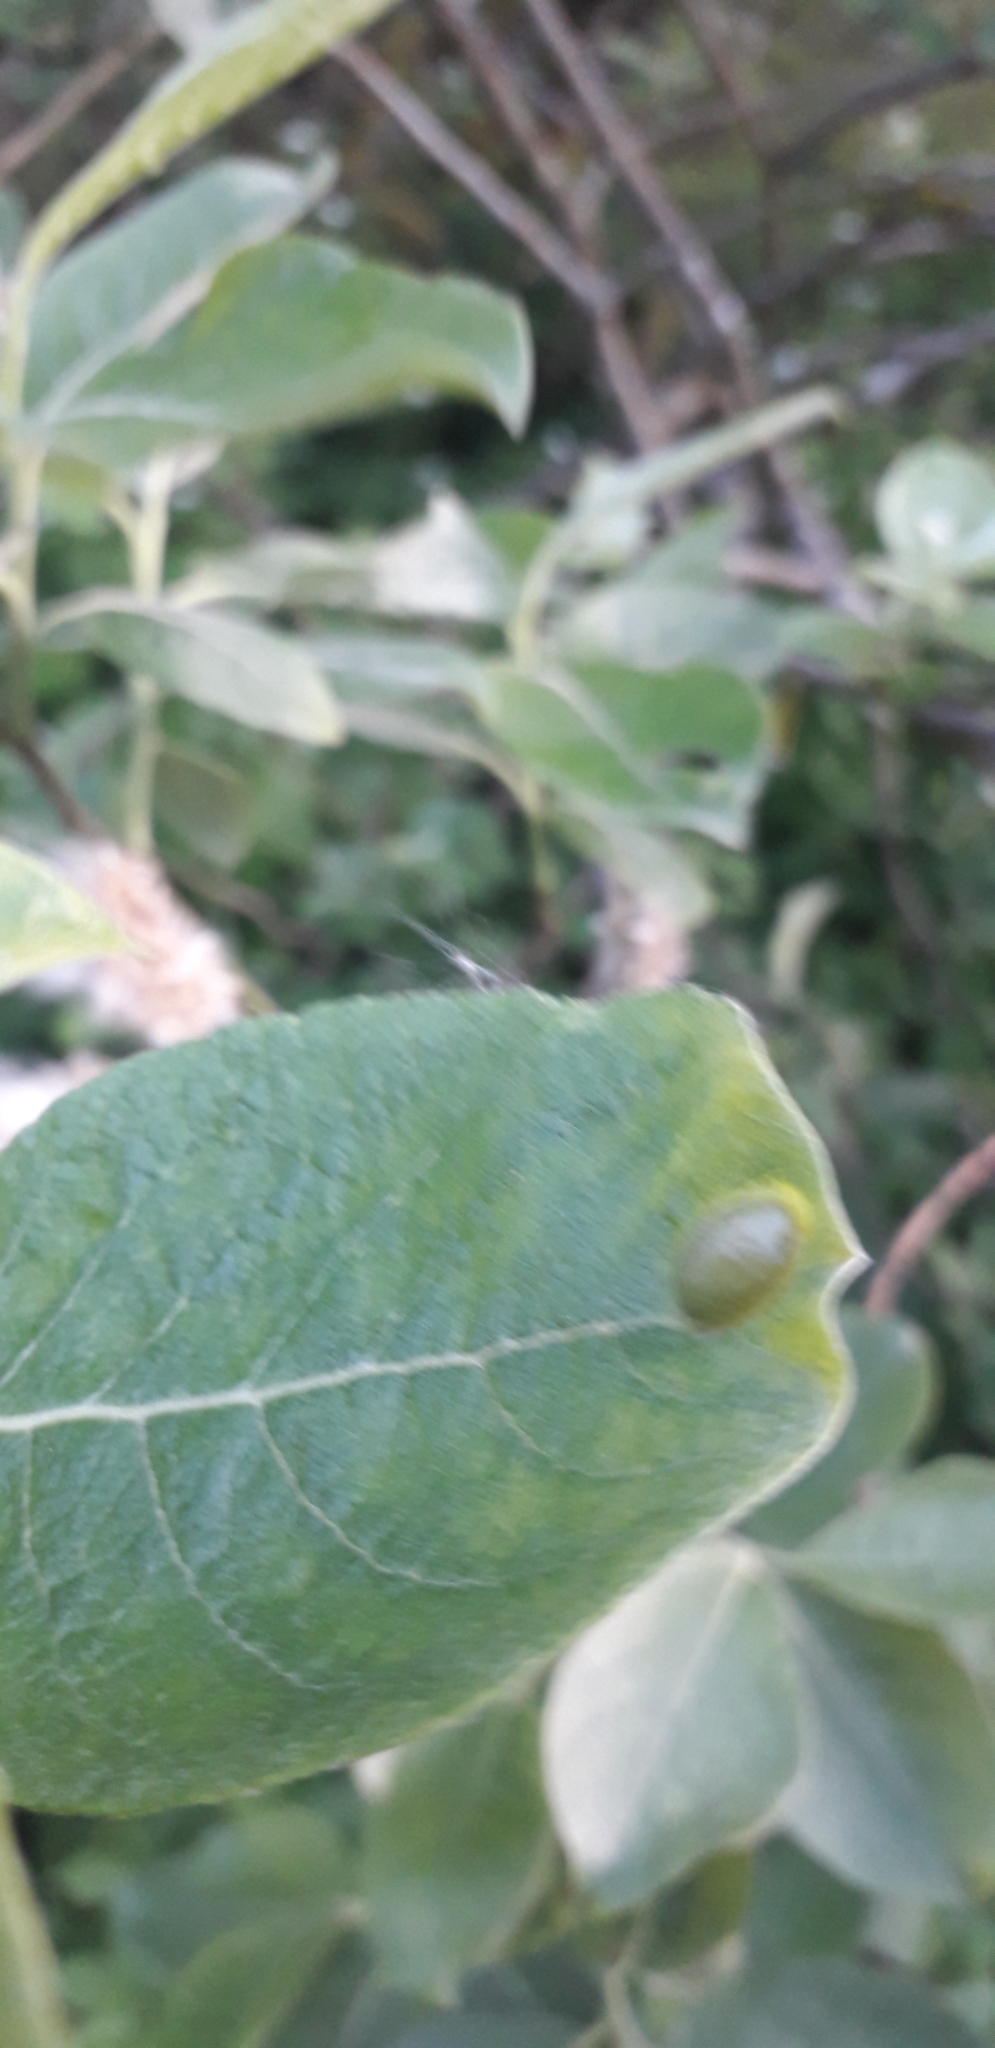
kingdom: Animalia
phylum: Arthropoda
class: Insecta
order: Hymenoptera
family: Tenthredinidae
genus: Pontania
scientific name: Pontania bridgmanii
